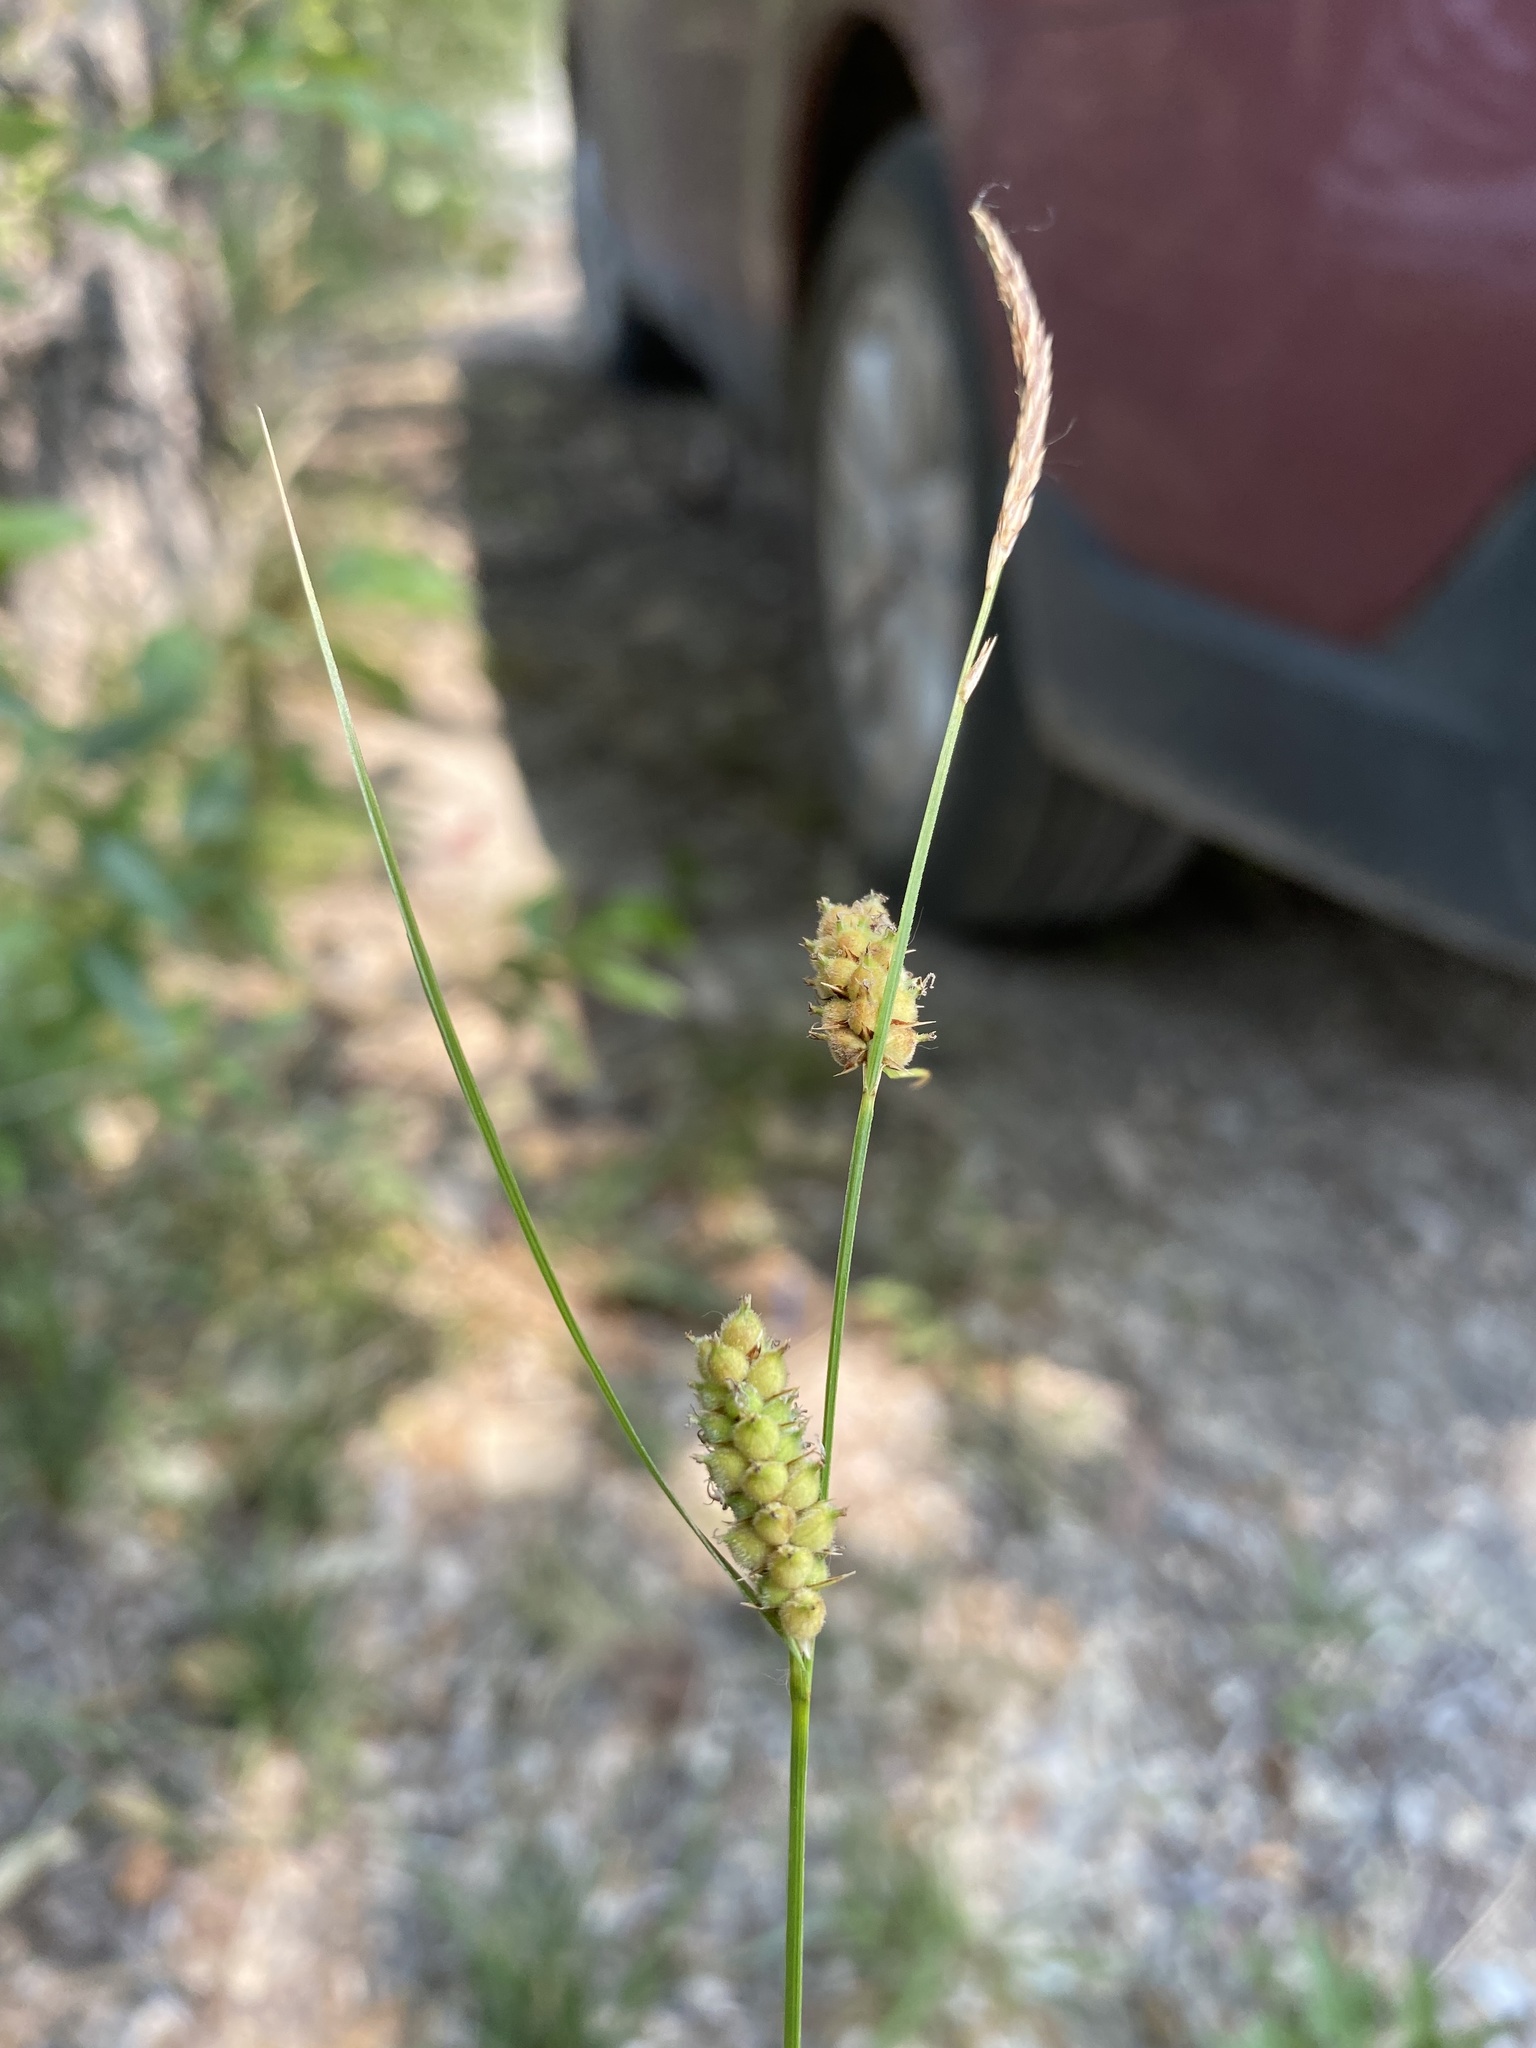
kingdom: Plantae
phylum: Tracheophyta
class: Liliopsida
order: Poales
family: Cyperaceae
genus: Carex
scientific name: Carex pellita
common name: Woolly sedge
